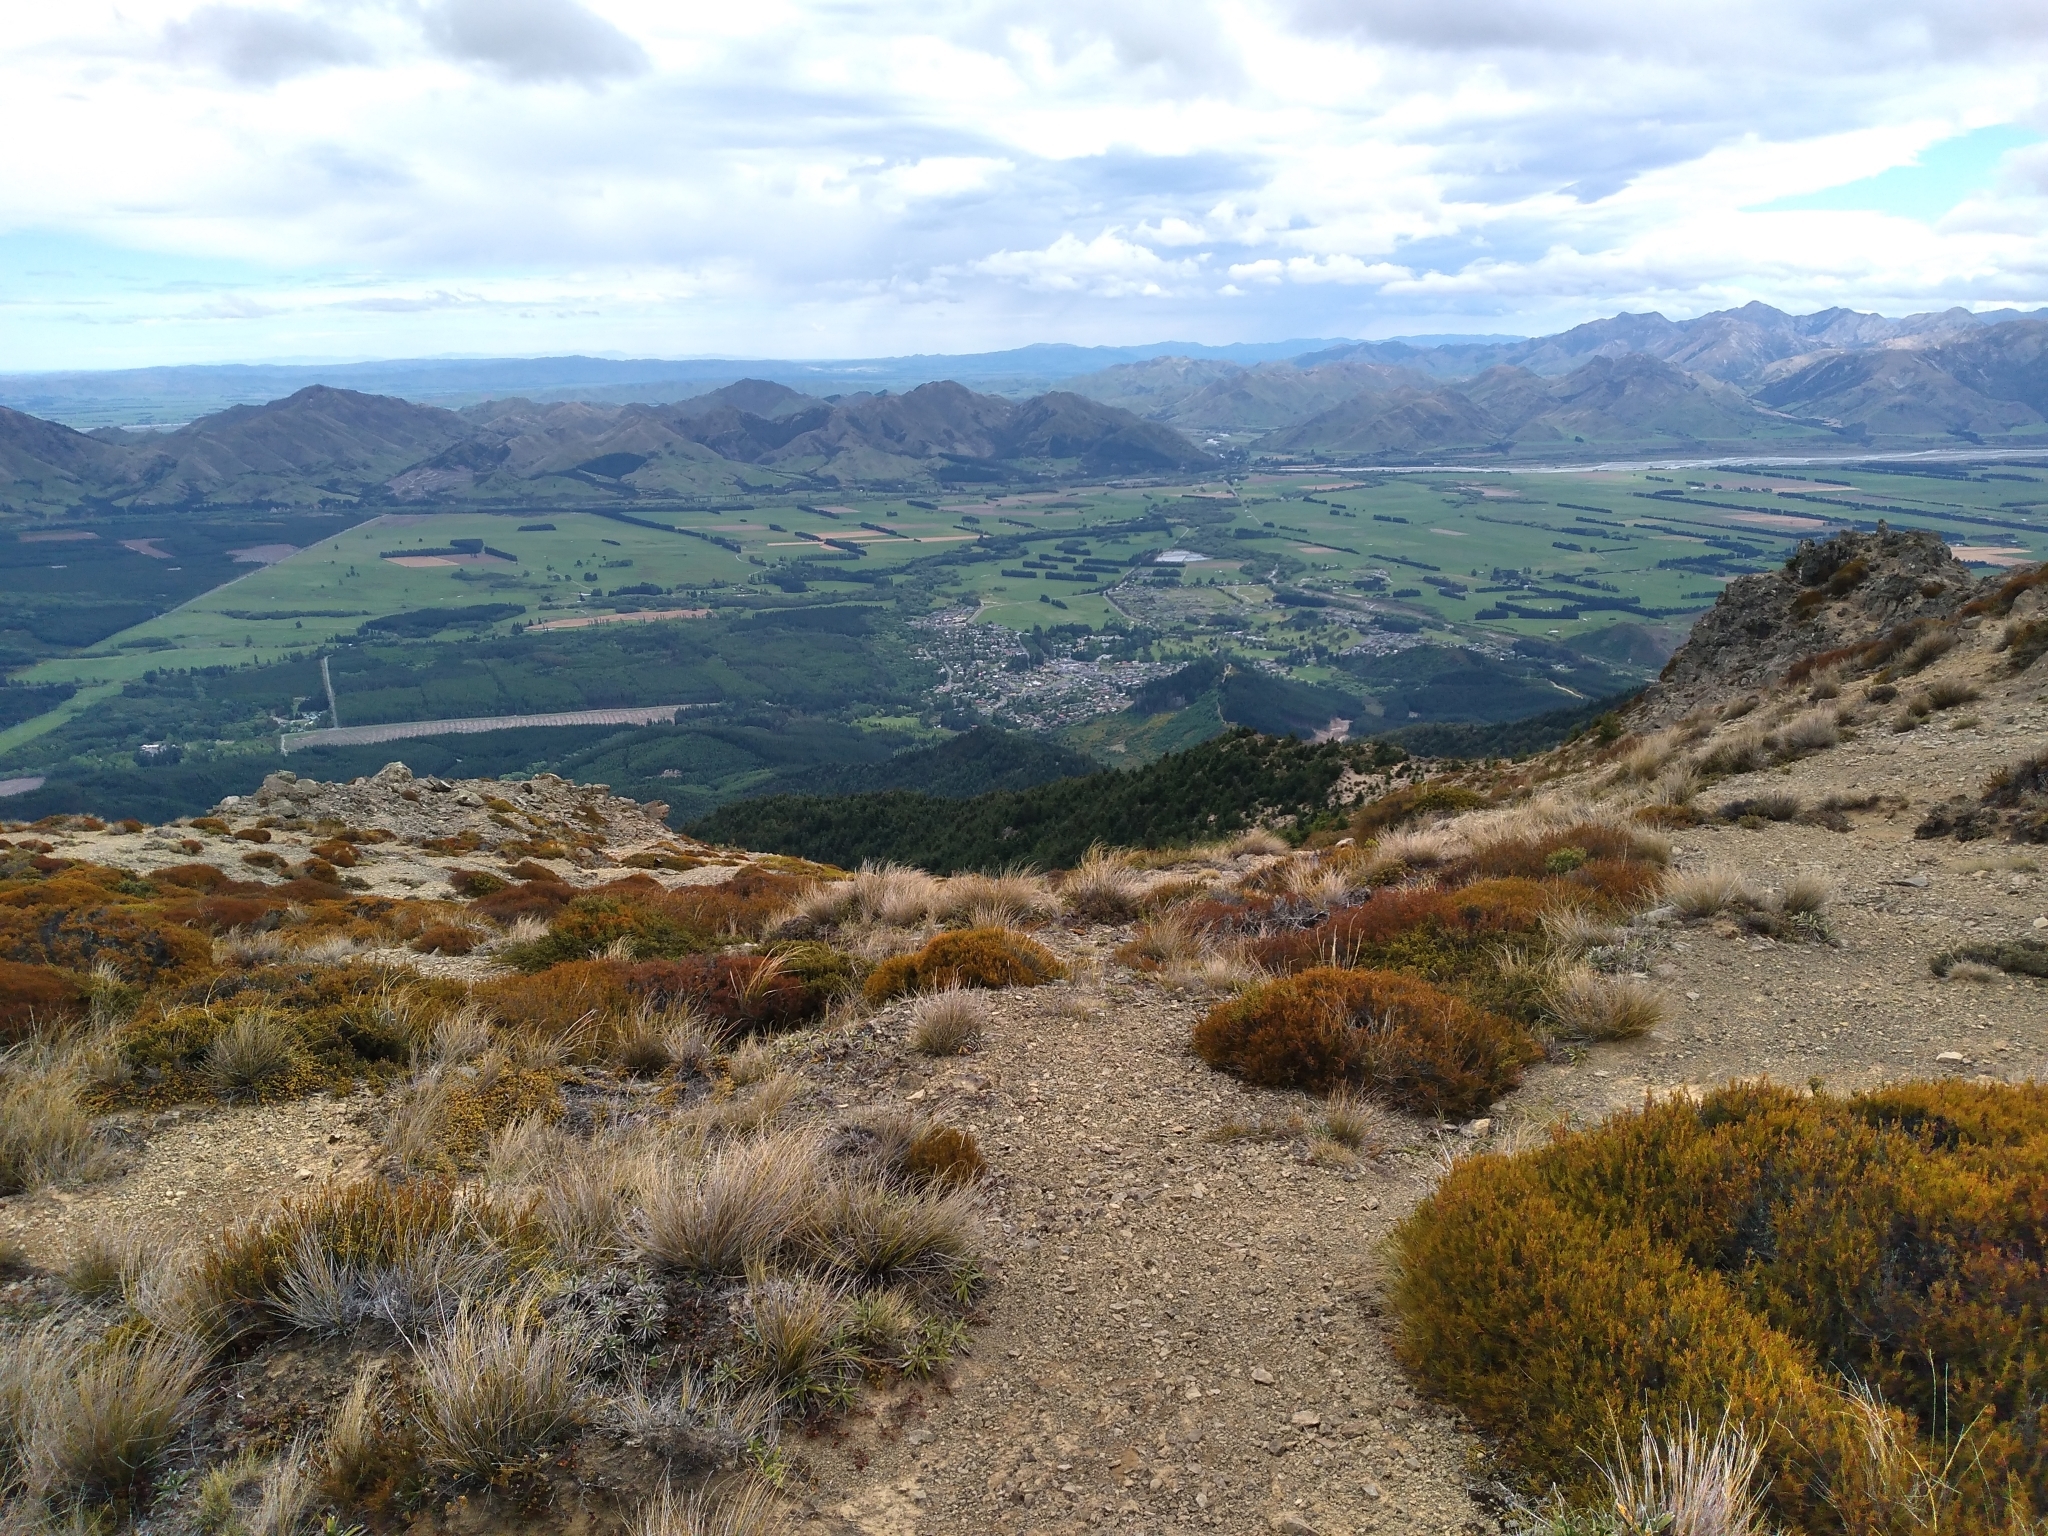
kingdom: Plantae
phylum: Tracheophyta
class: Pinopsida
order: Pinales
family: Pinaceae
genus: Pseudotsuga
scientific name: Pseudotsuga menziesii
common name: Douglas fir
